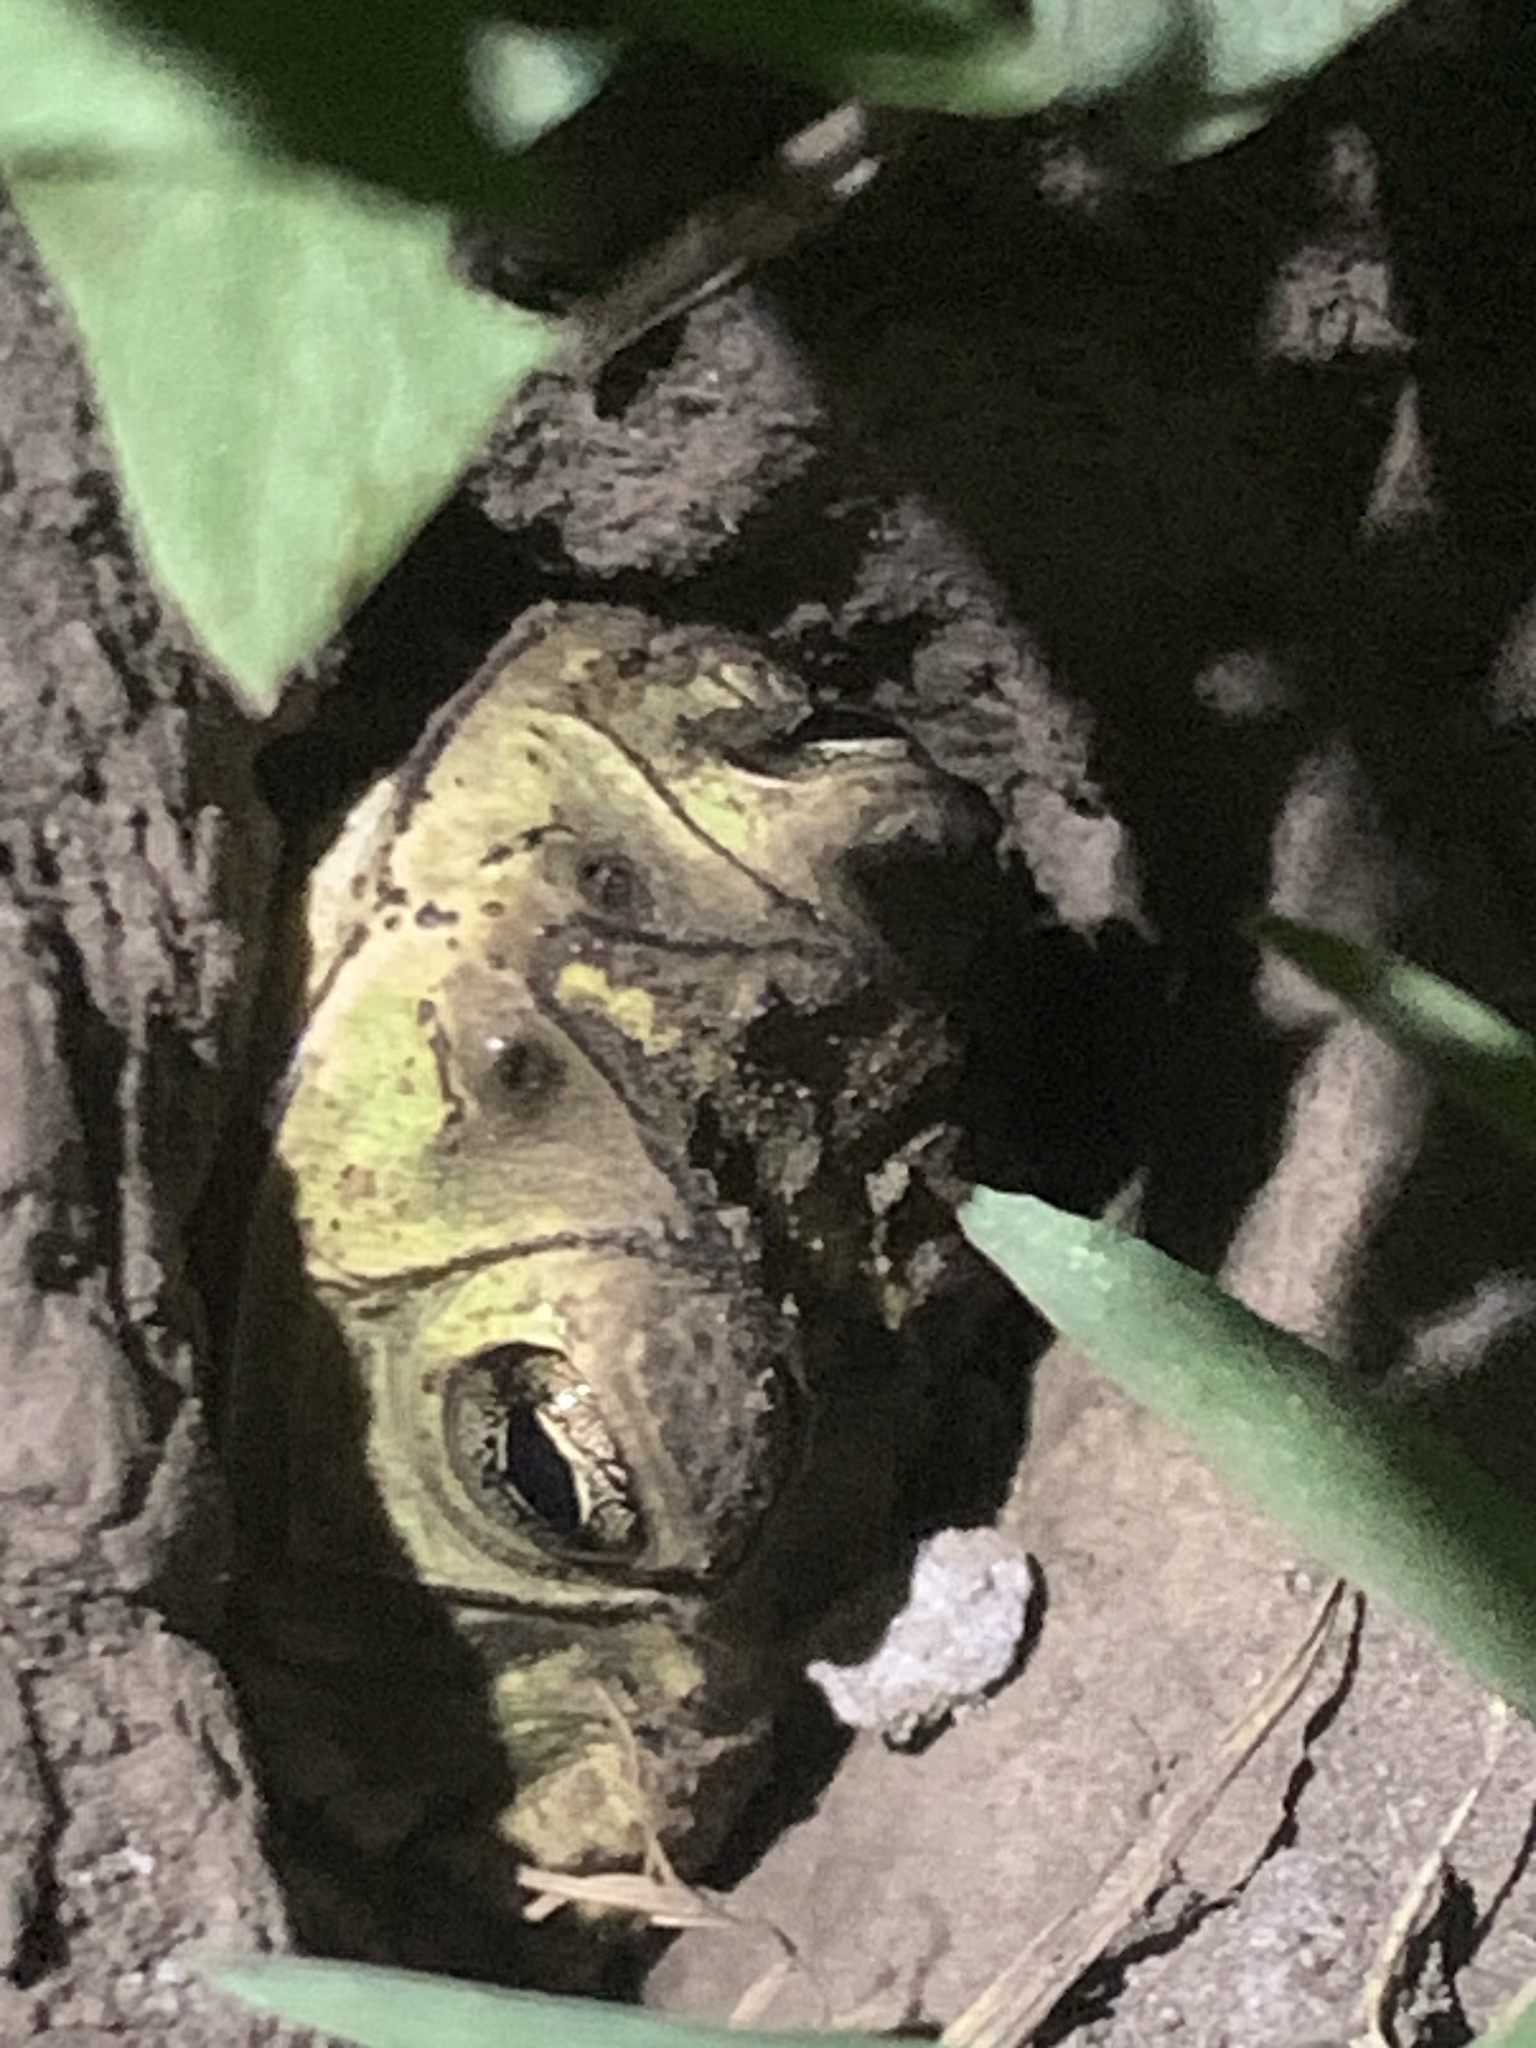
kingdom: Animalia
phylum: Chordata
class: Amphibia
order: Anura
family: Bufonidae
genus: Rhinella
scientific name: Rhinella dorbignyi
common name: D´orbigny’s toad
